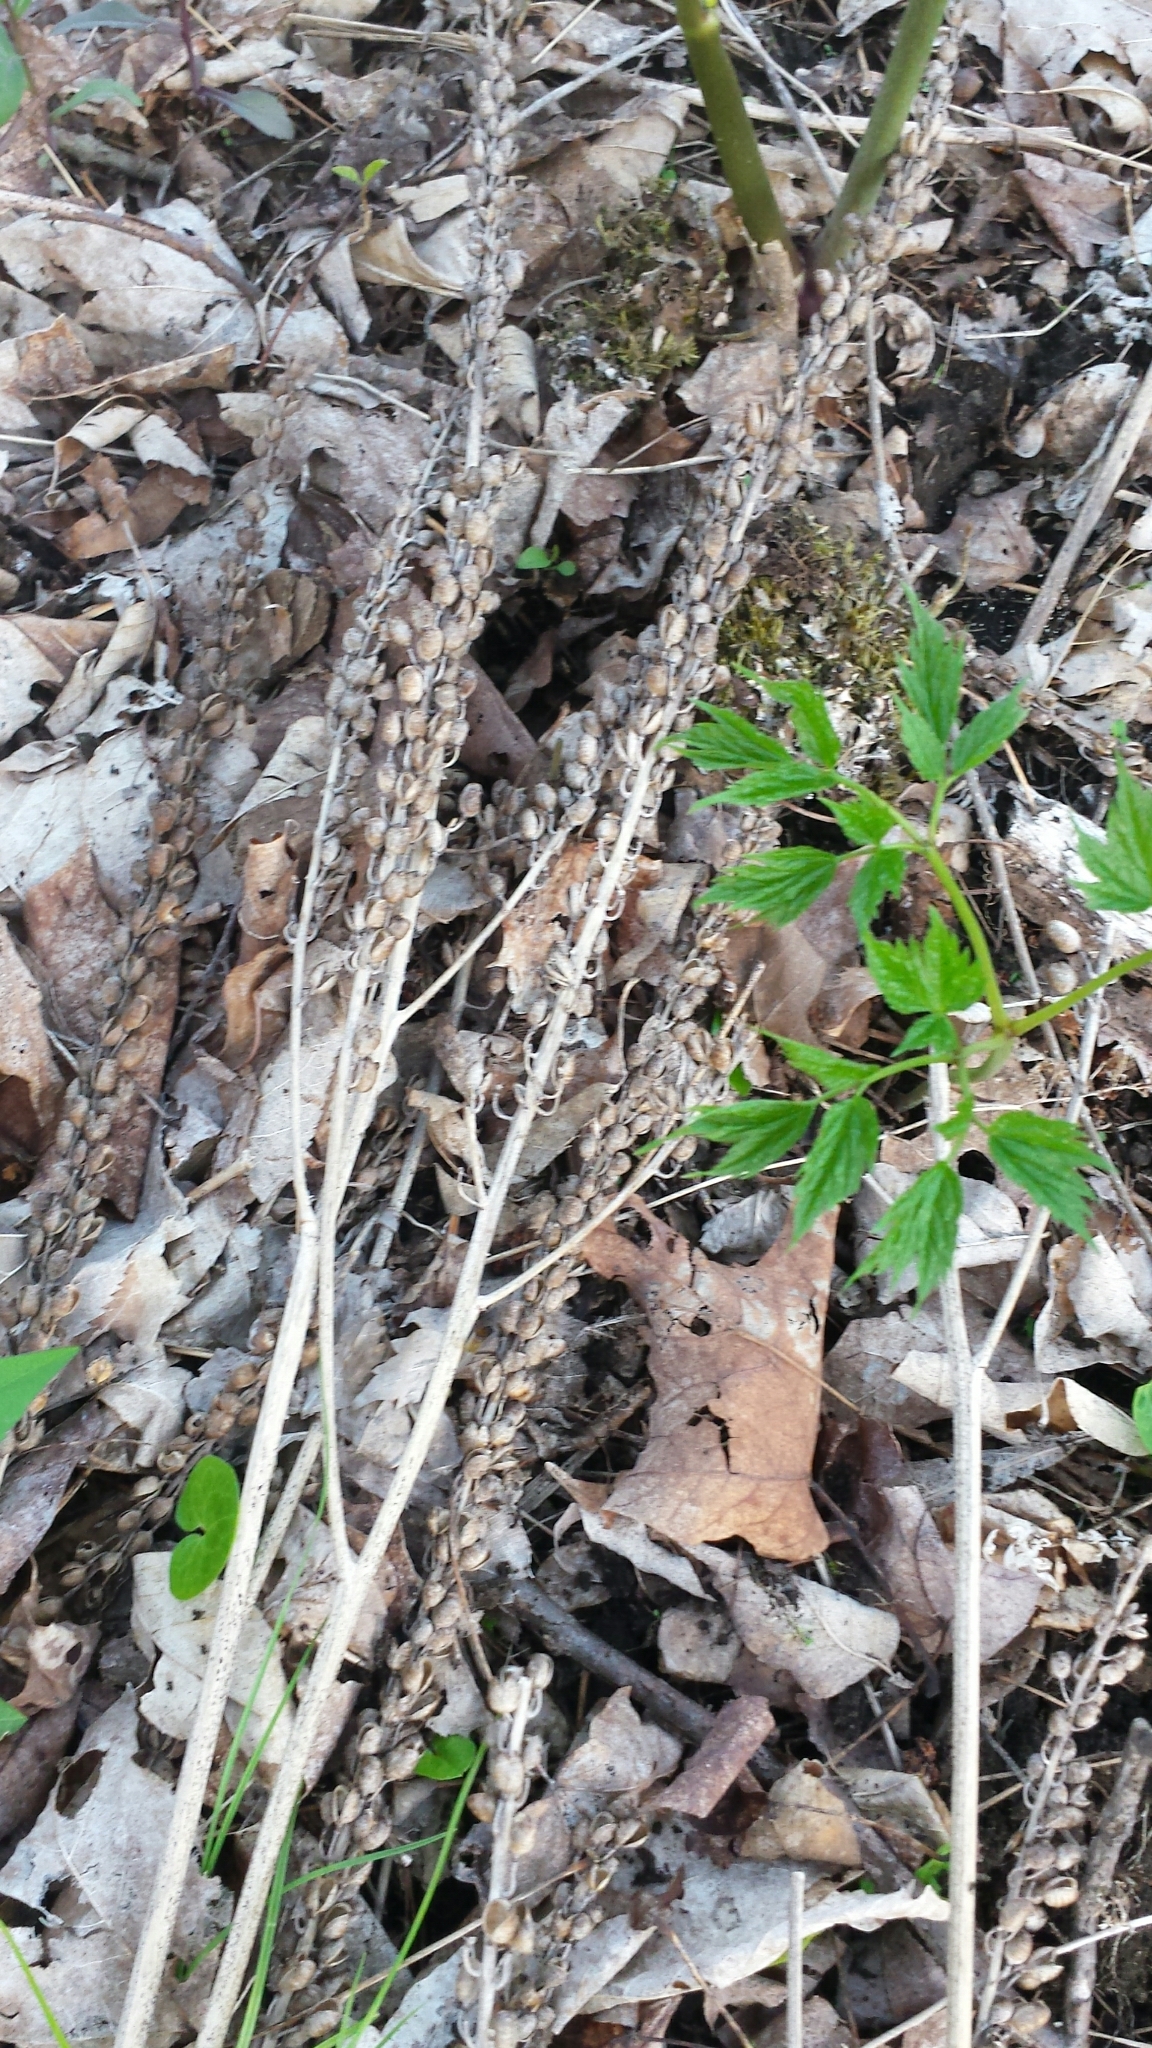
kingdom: Plantae
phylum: Tracheophyta
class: Magnoliopsida
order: Ranunculales
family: Ranunculaceae
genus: Actaea
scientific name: Actaea racemosa
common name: Black cohosh
